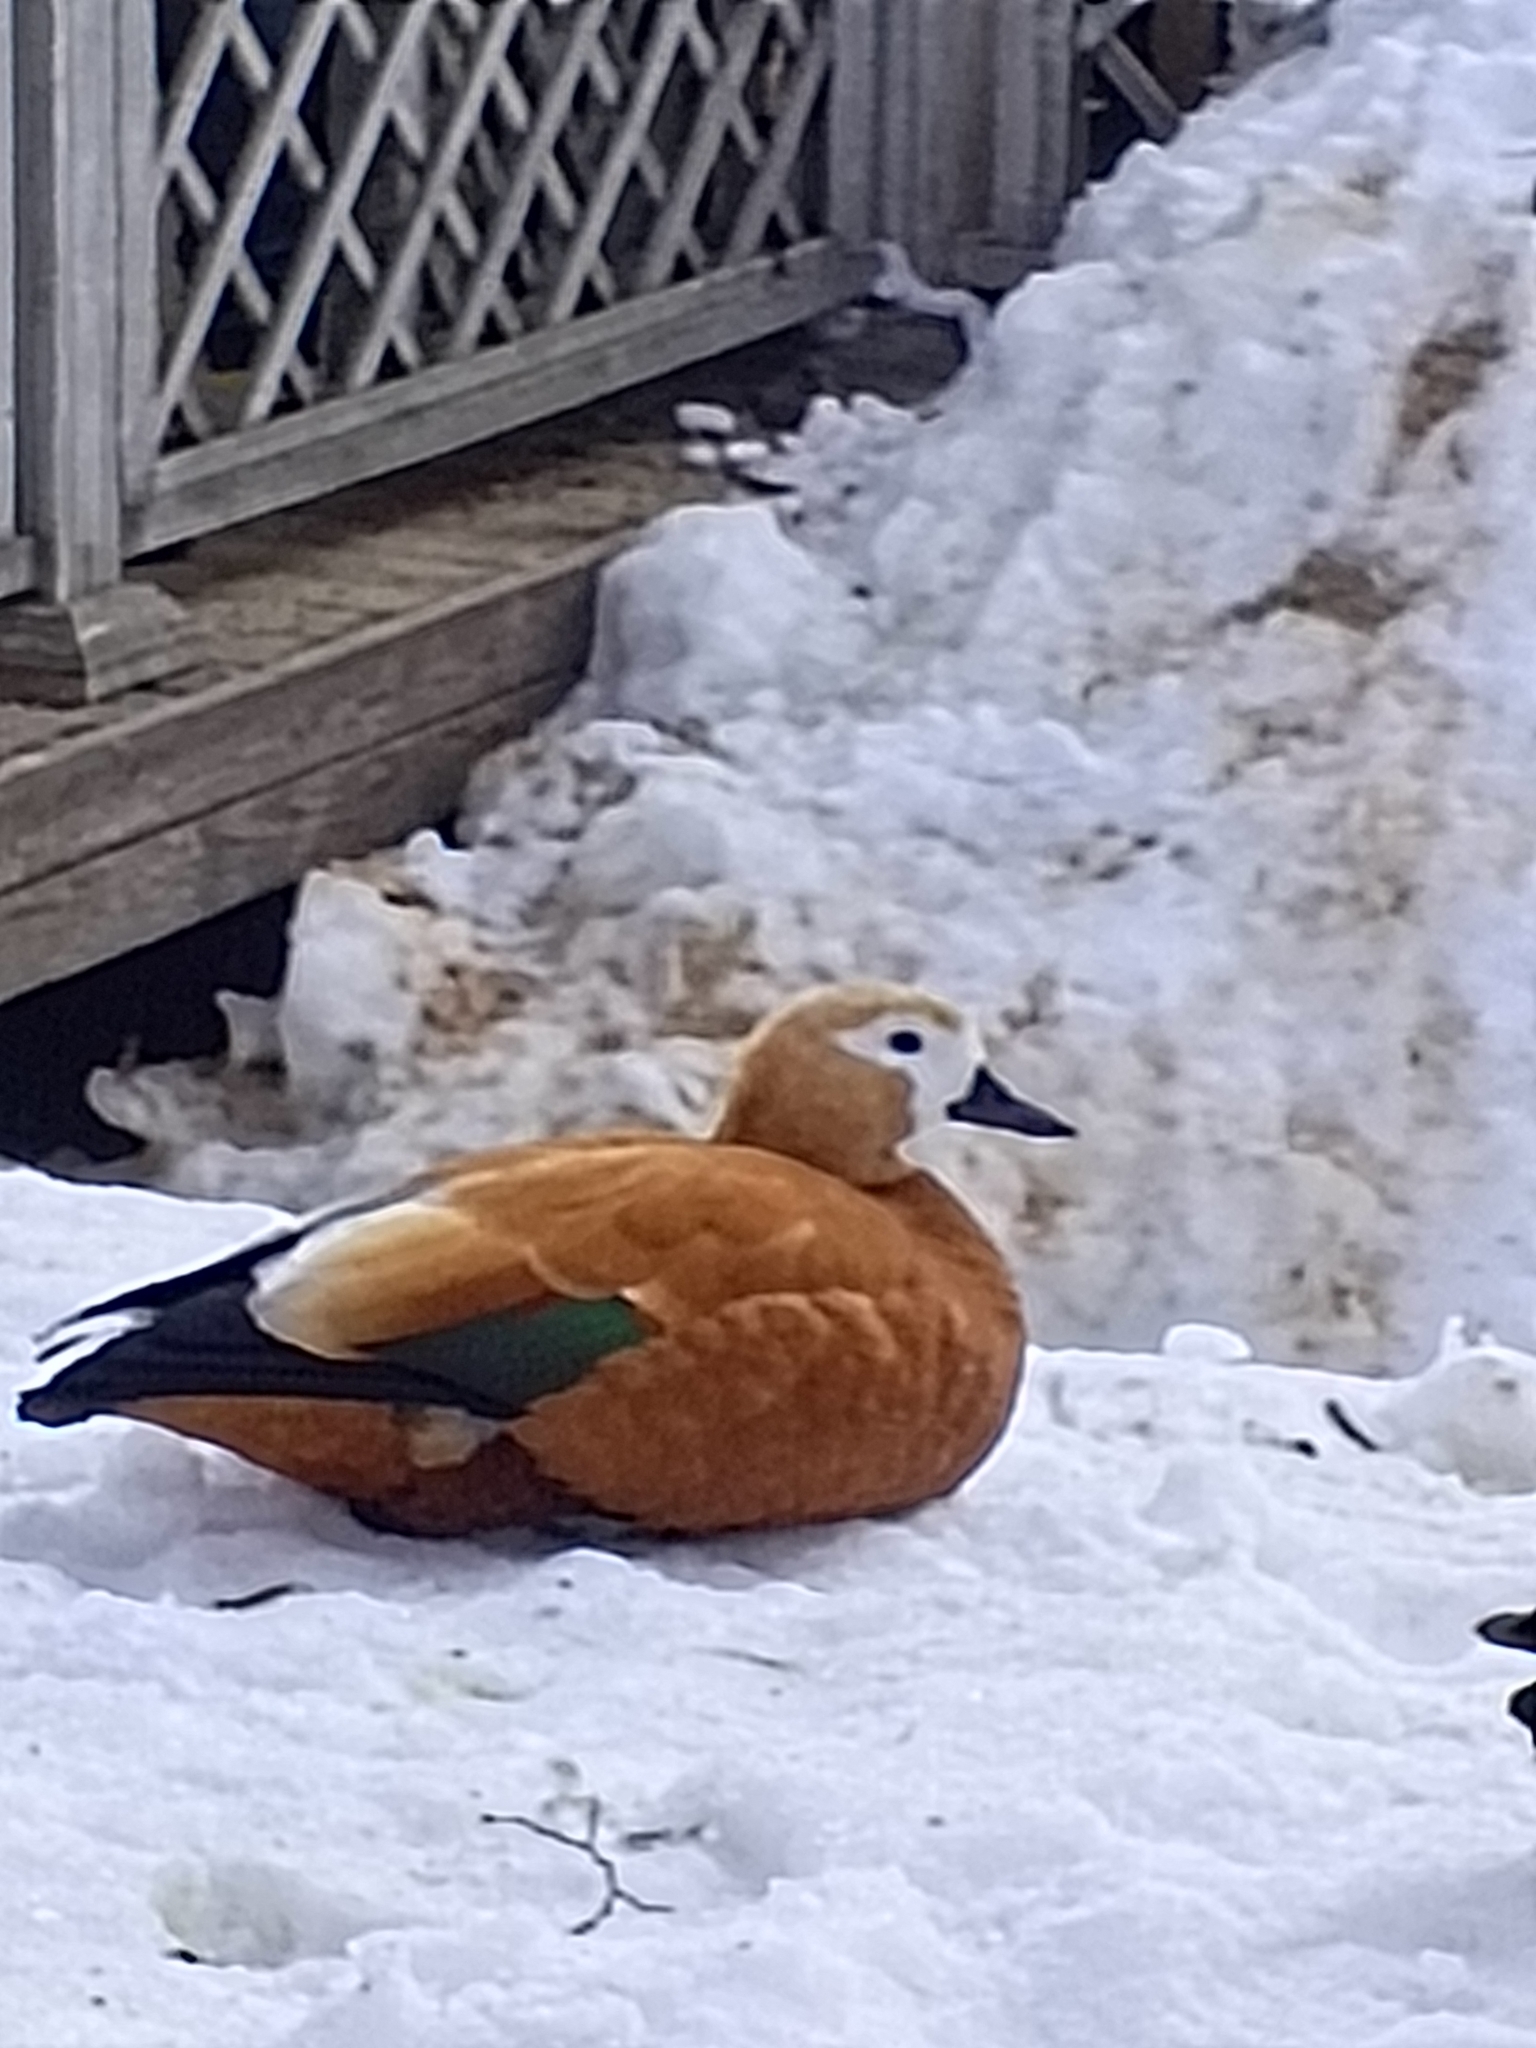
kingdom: Animalia
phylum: Chordata
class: Aves
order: Anseriformes
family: Anatidae
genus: Tadorna
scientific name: Tadorna ferruginea
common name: Ruddy shelduck
